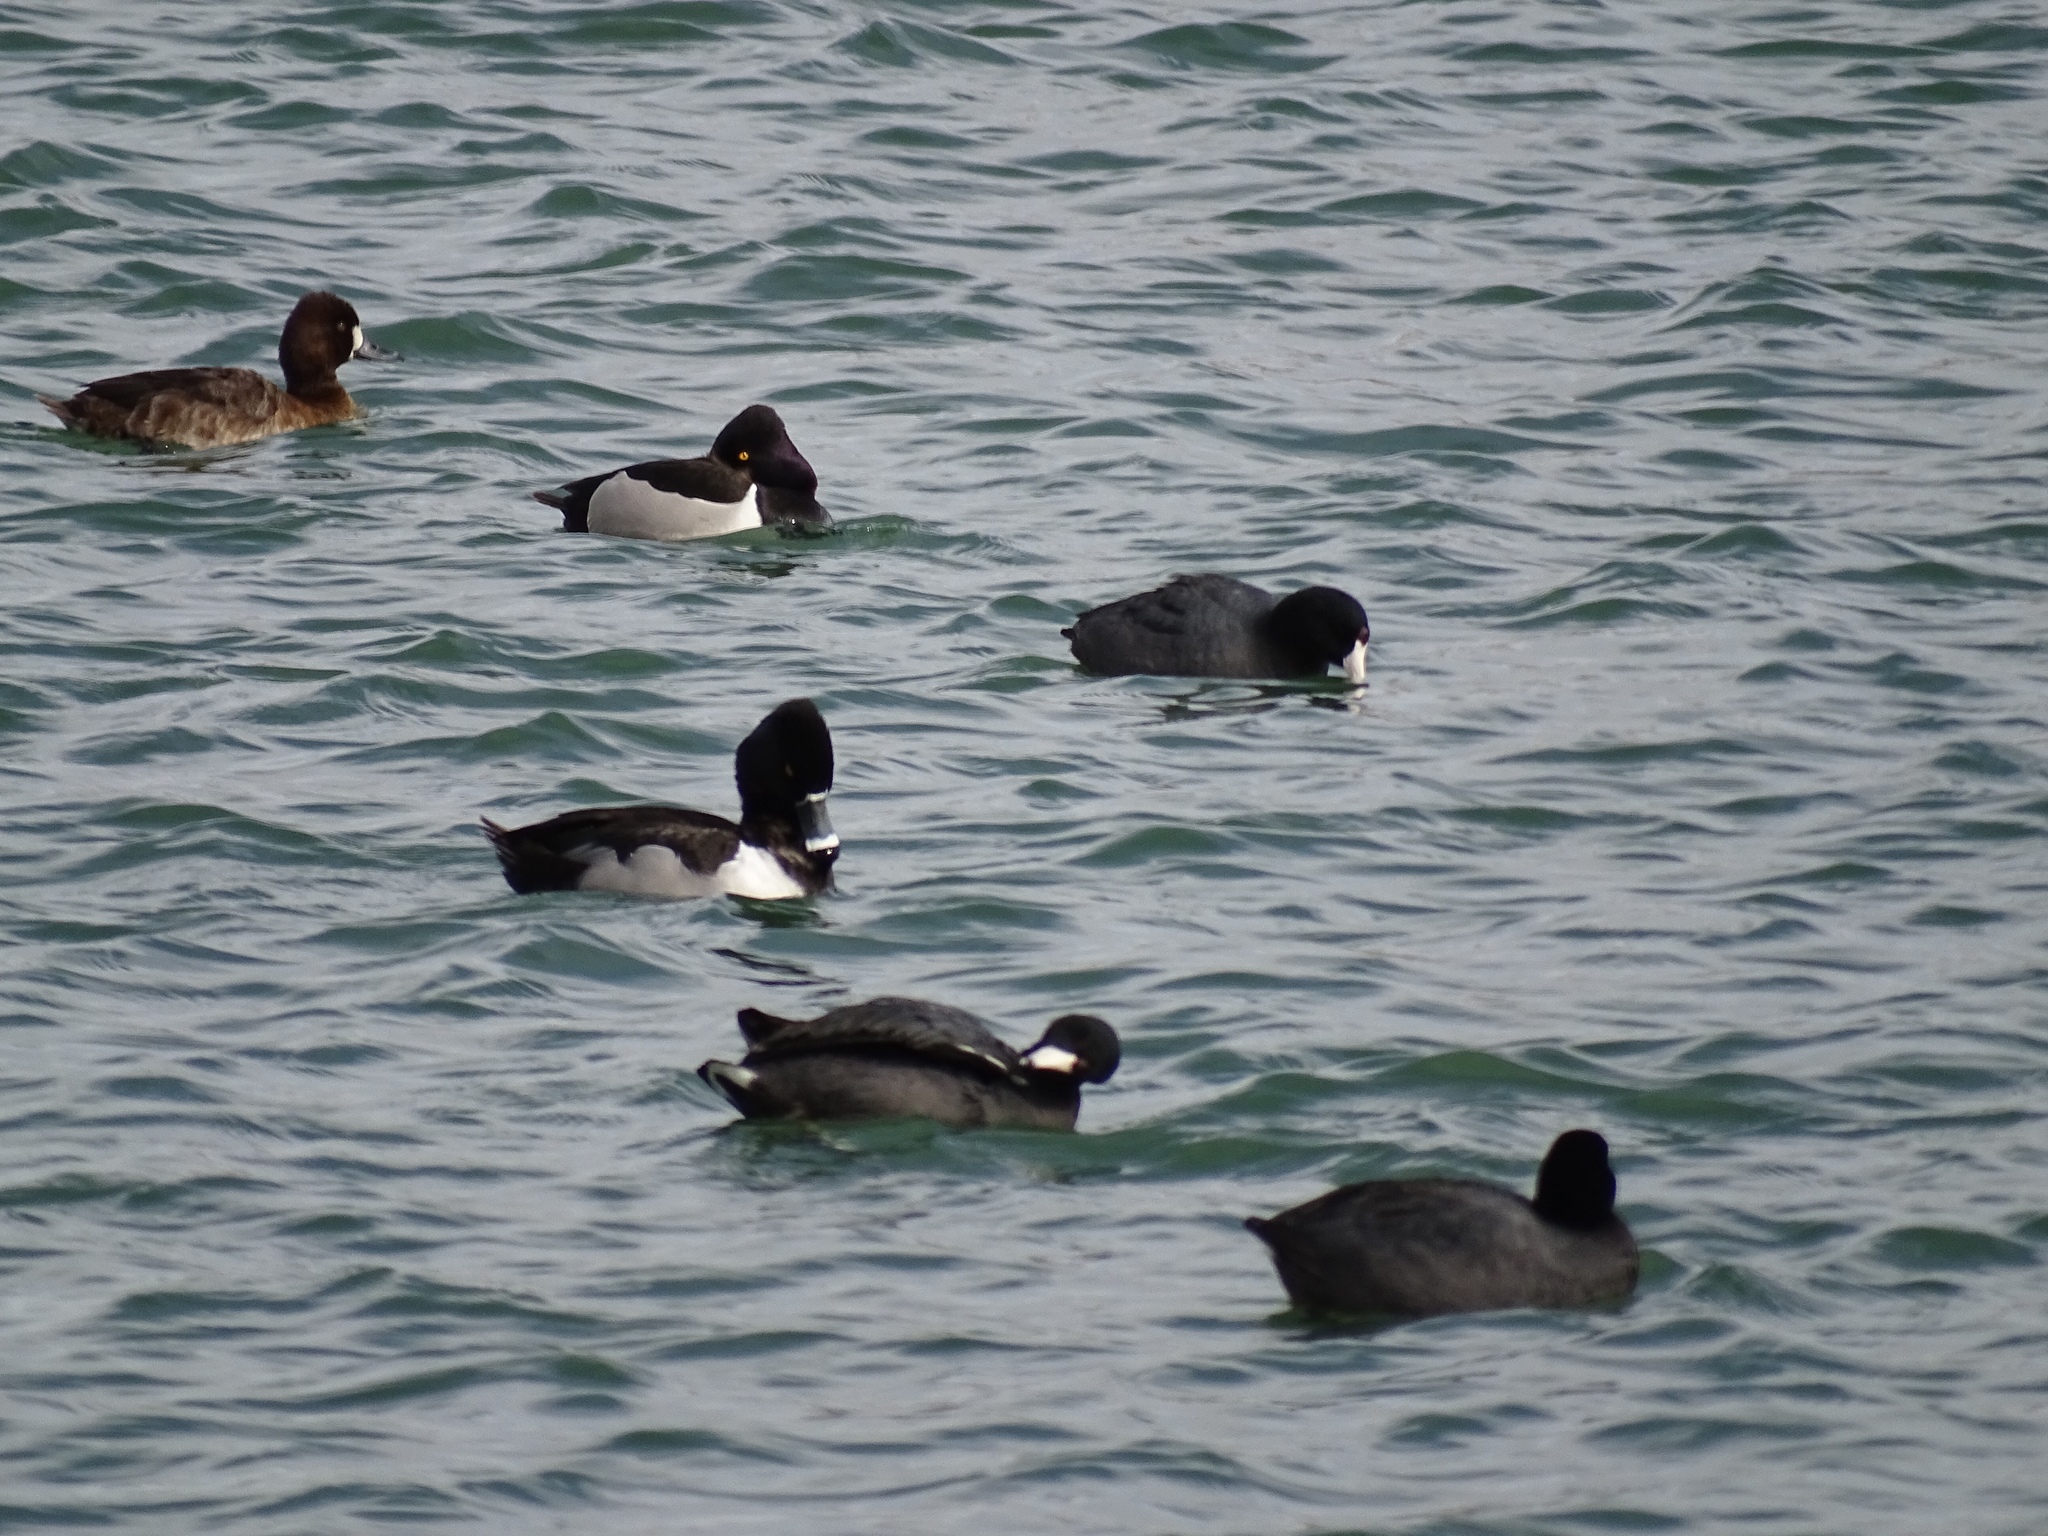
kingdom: Animalia
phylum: Chordata
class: Aves
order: Anseriformes
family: Anatidae
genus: Aythya
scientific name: Aythya collaris
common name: Ring-necked duck
